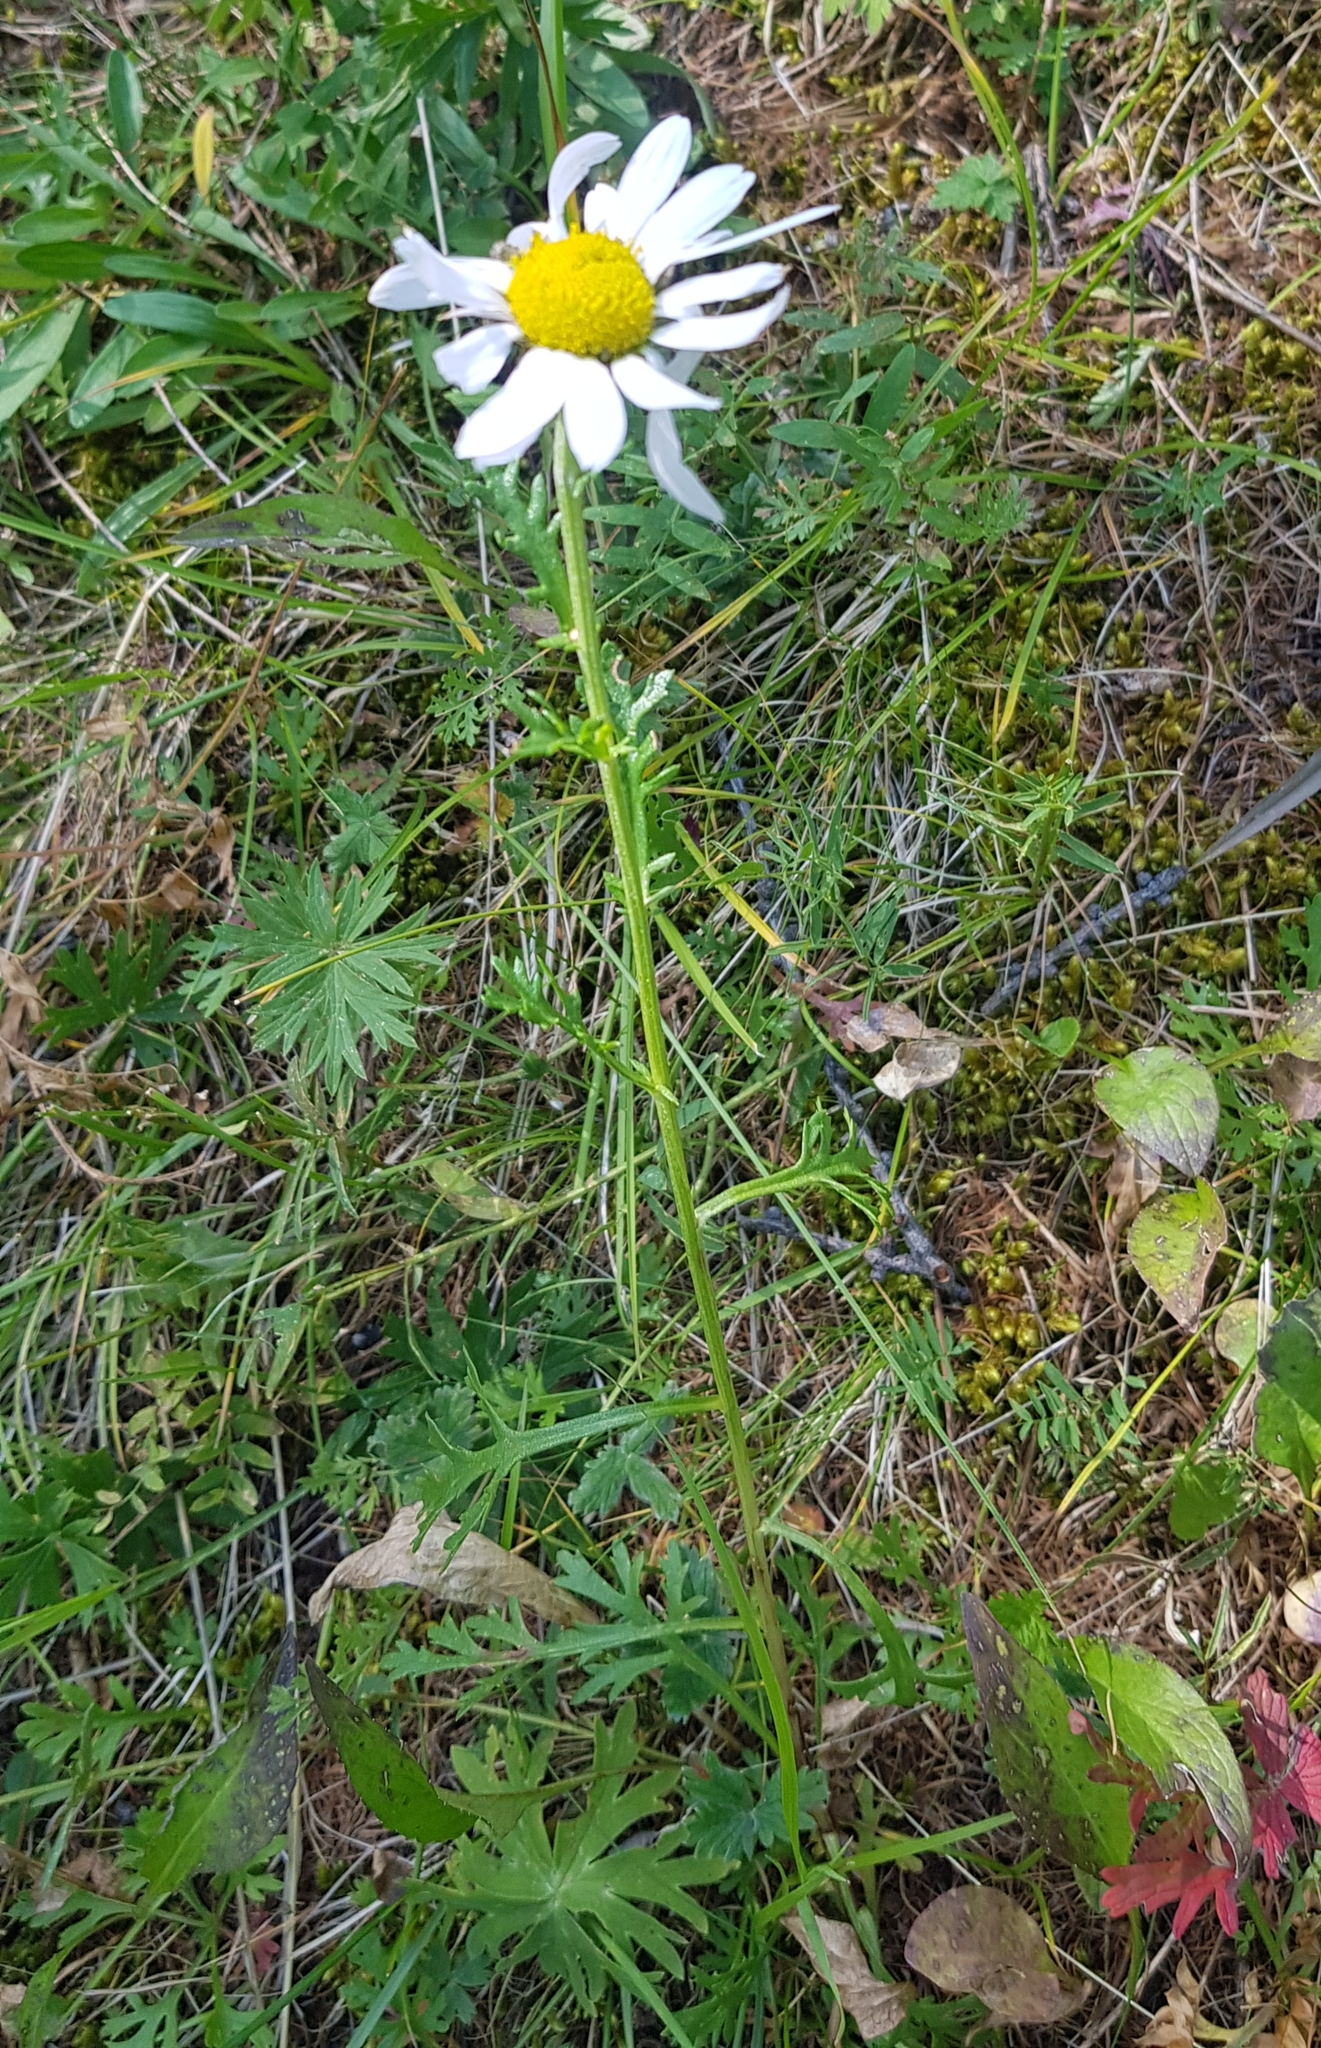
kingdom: Plantae
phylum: Tracheophyta
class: Magnoliopsida
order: Asterales
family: Asteraceae
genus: Chrysanthemum
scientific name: Chrysanthemum zawadzkii
